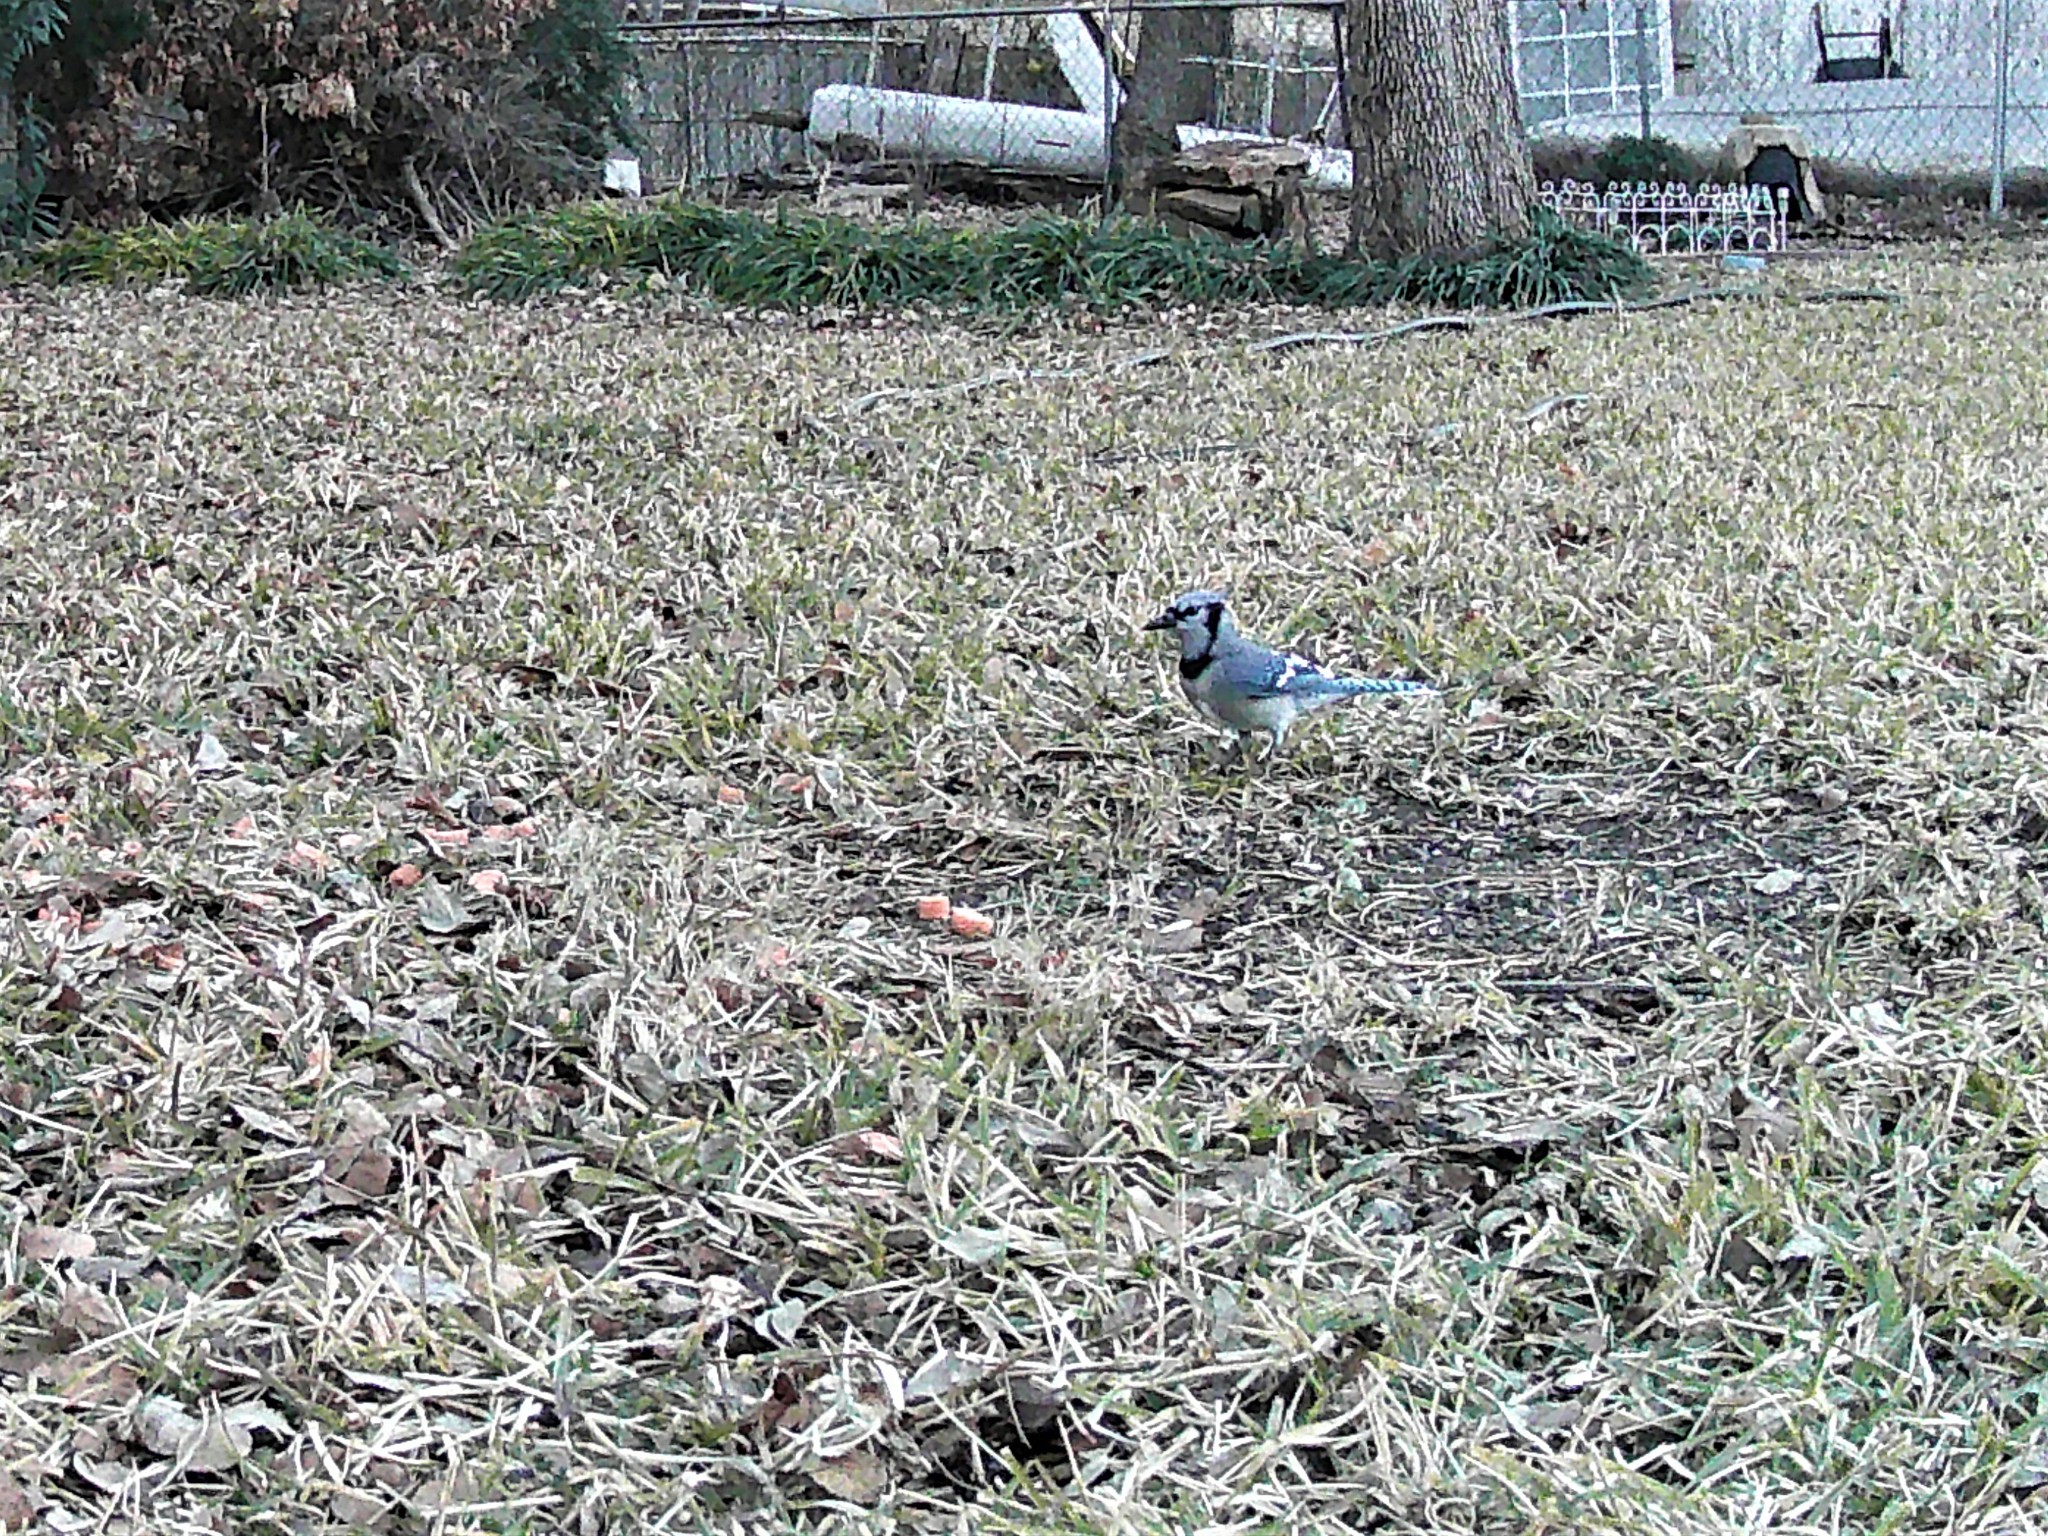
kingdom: Animalia
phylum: Chordata
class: Aves
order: Passeriformes
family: Corvidae
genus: Cyanocitta
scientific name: Cyanocitta cristata
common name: Blue jay
